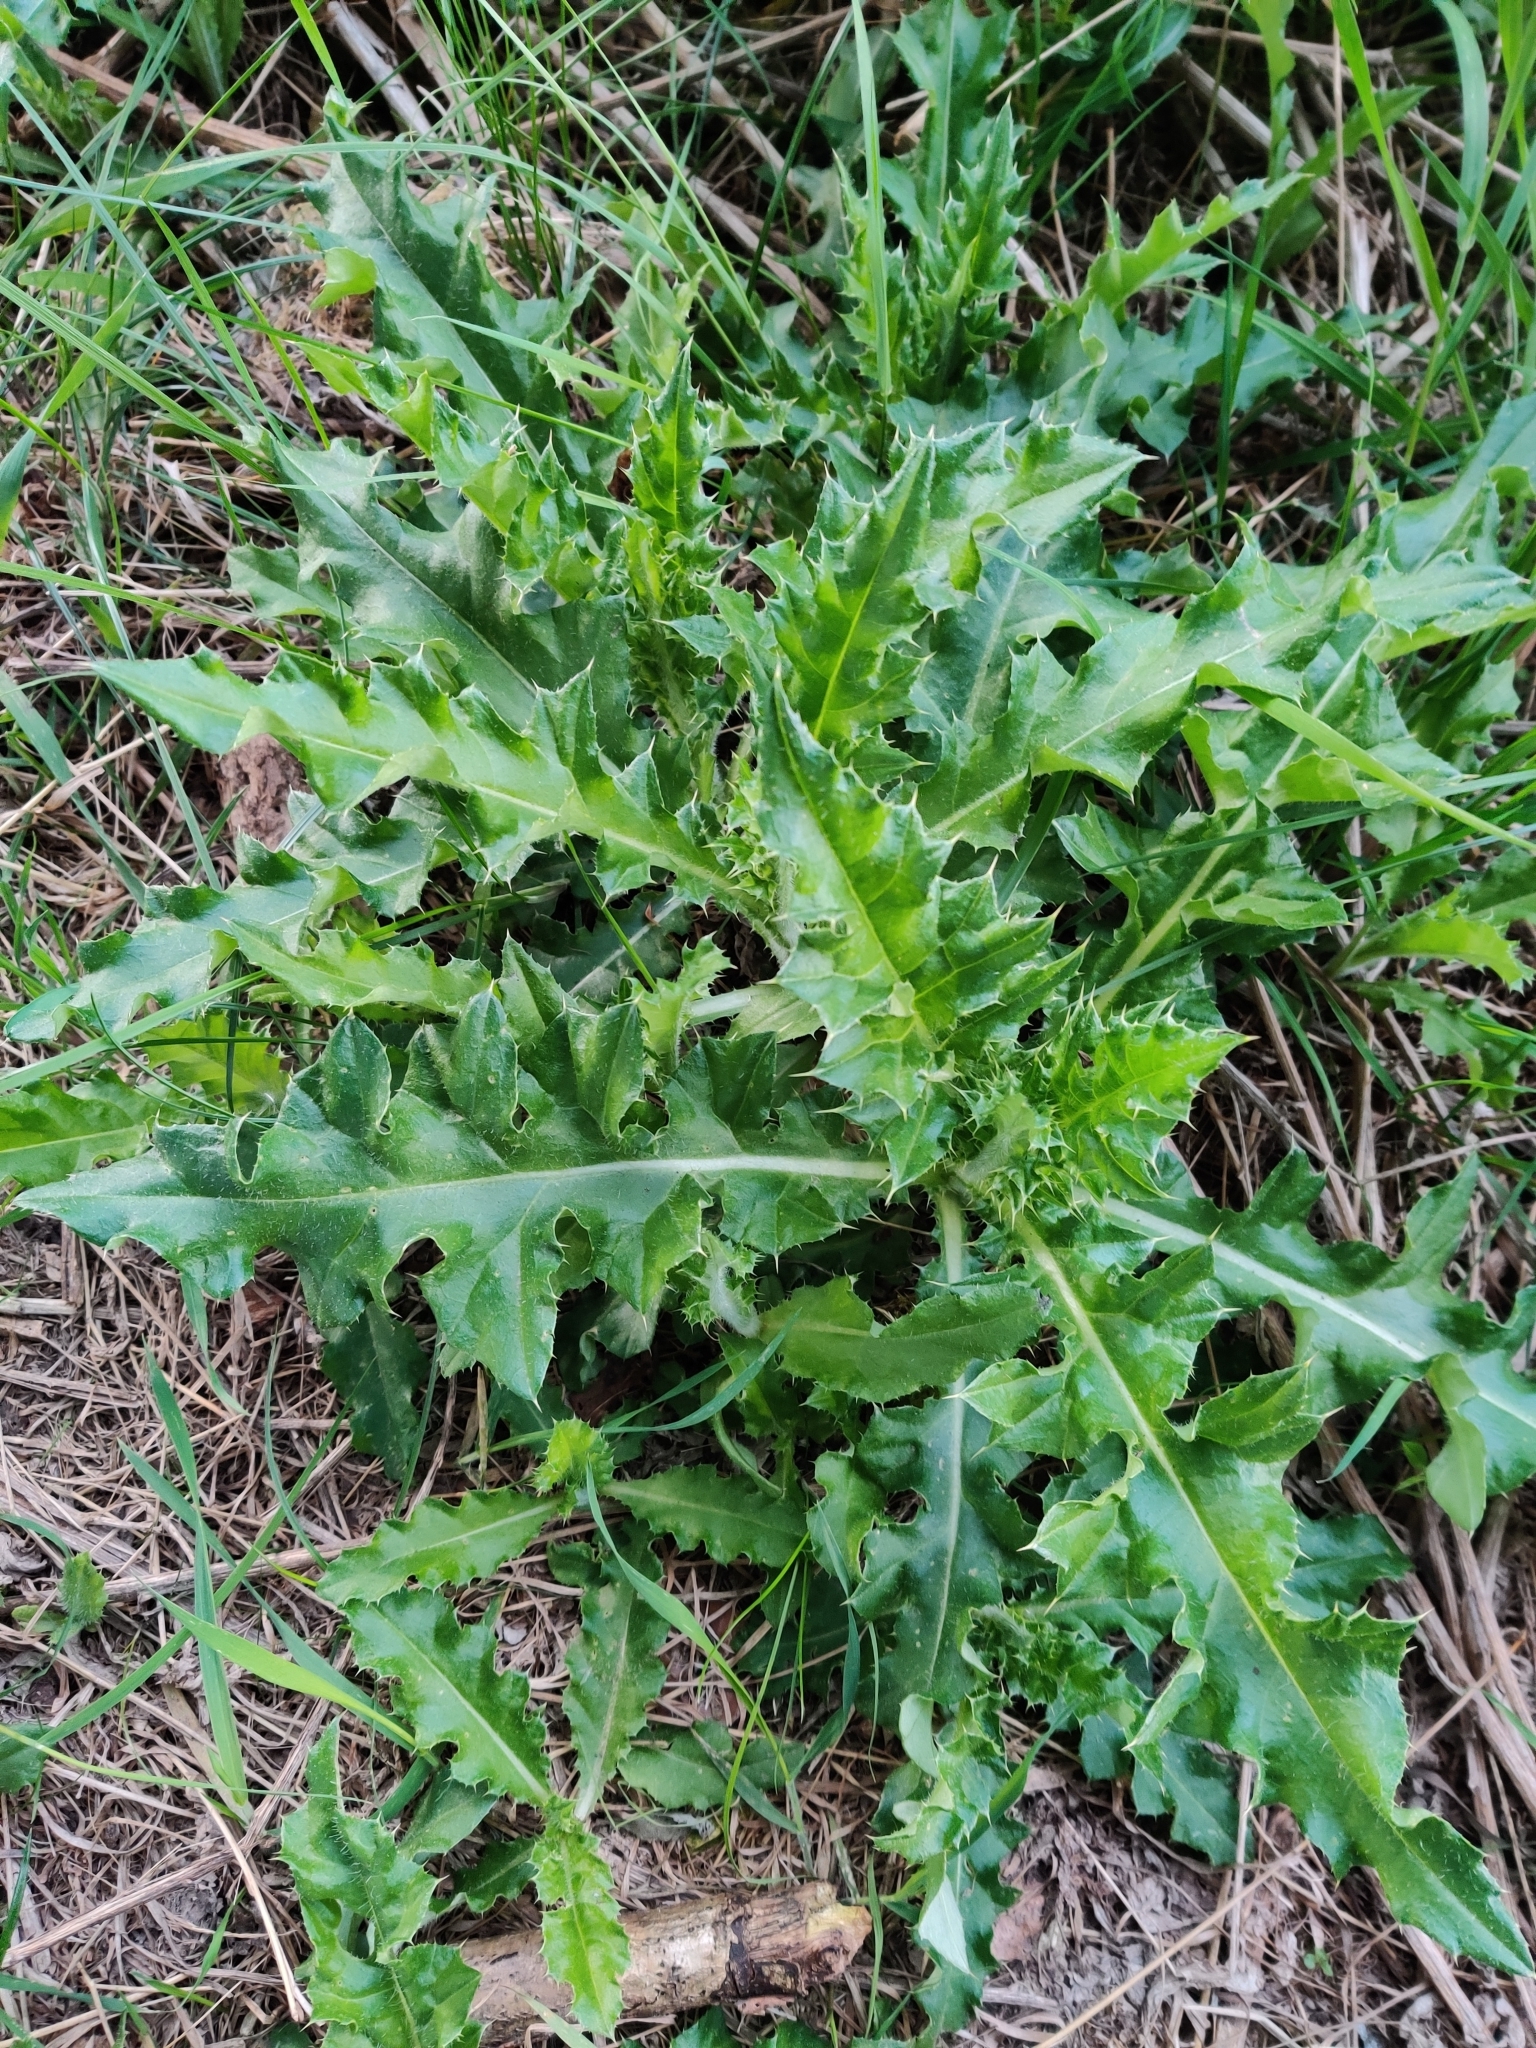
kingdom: Plantae
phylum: Tracheophyta
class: Magnoliopsida
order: Asterales
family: Asteraceae
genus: Cirsium
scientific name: Cirsium arvense
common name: Creeping thistle
